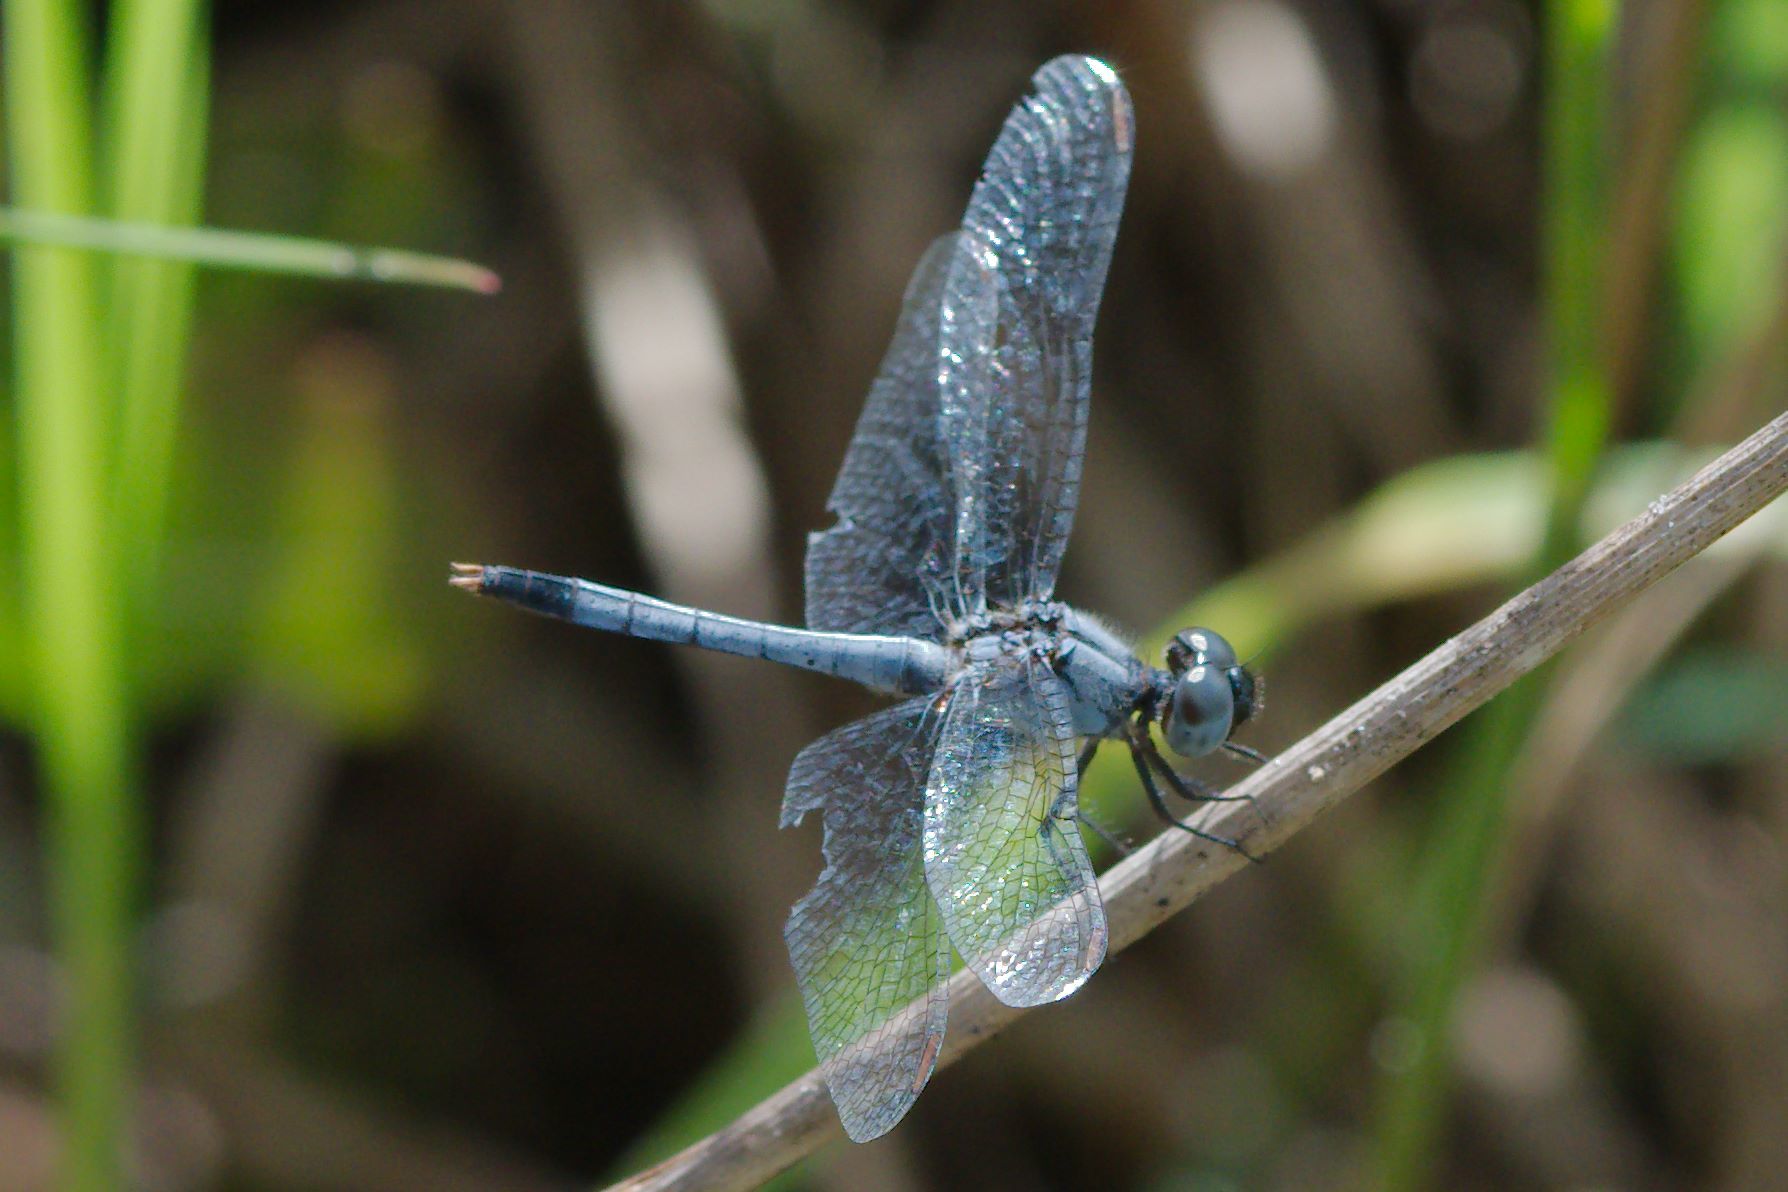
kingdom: Animalia
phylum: Arthropoda
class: Insecta
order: Odonata
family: Libellulidae
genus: Erythrodiplax
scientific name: Erythrodiplax minuscula
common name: Little blue dragonlet
